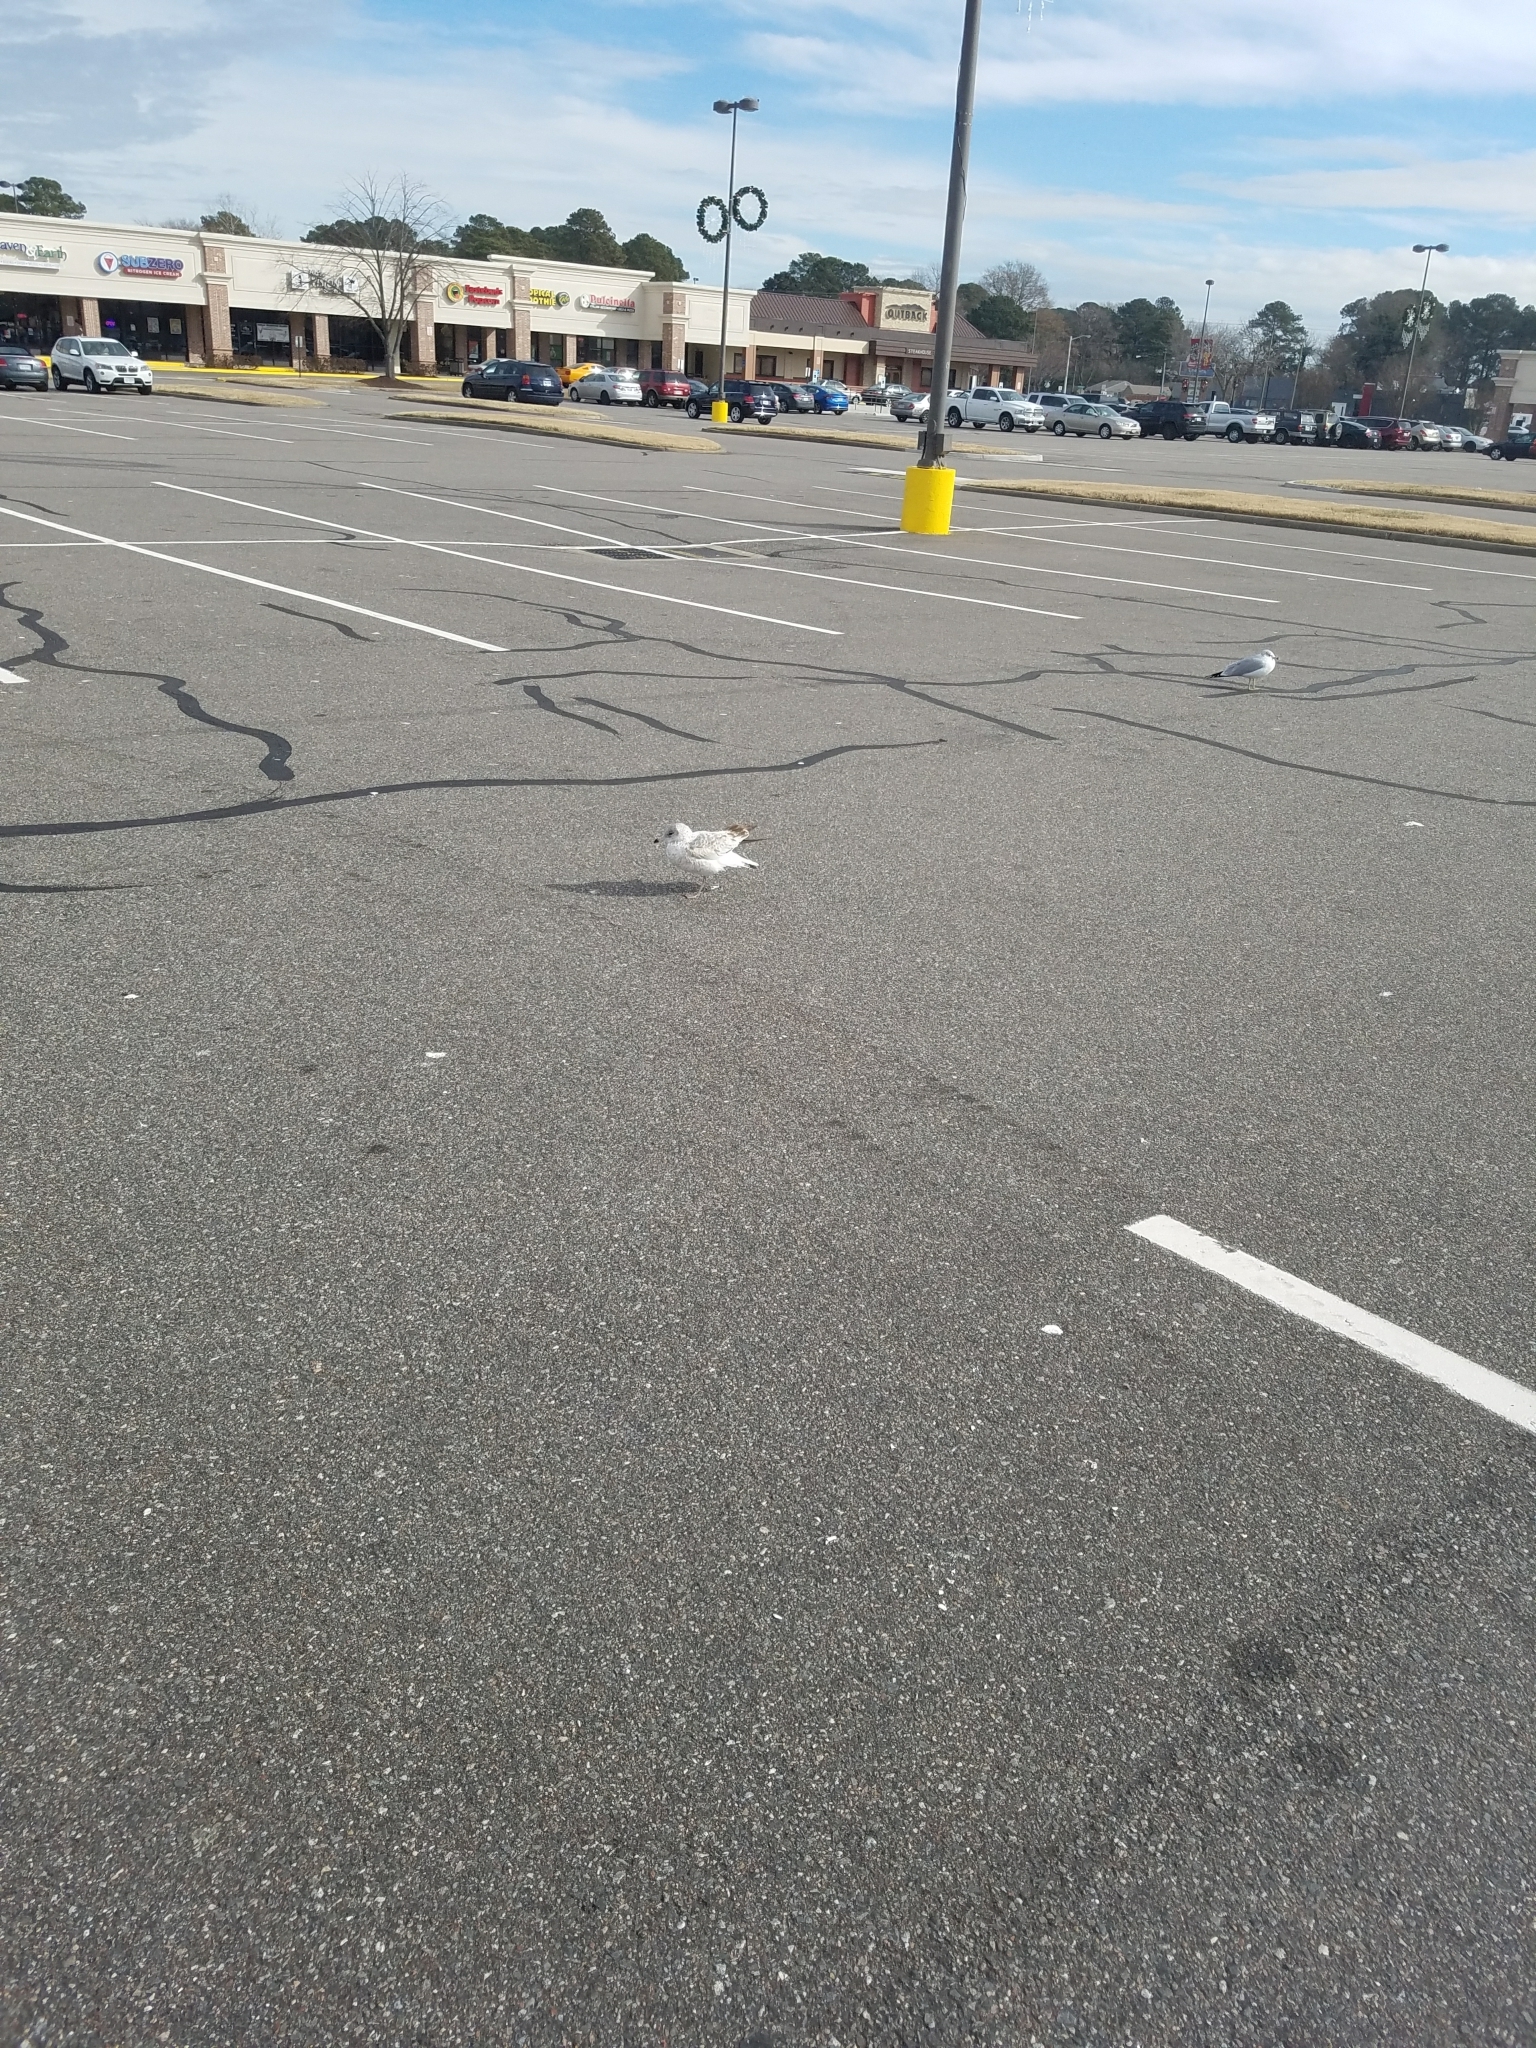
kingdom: Animalia
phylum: Chordata
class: Aves
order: Charadriiformes
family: Laridae
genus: Larus
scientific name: Larus delawarensis
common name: Ring-billed gull
